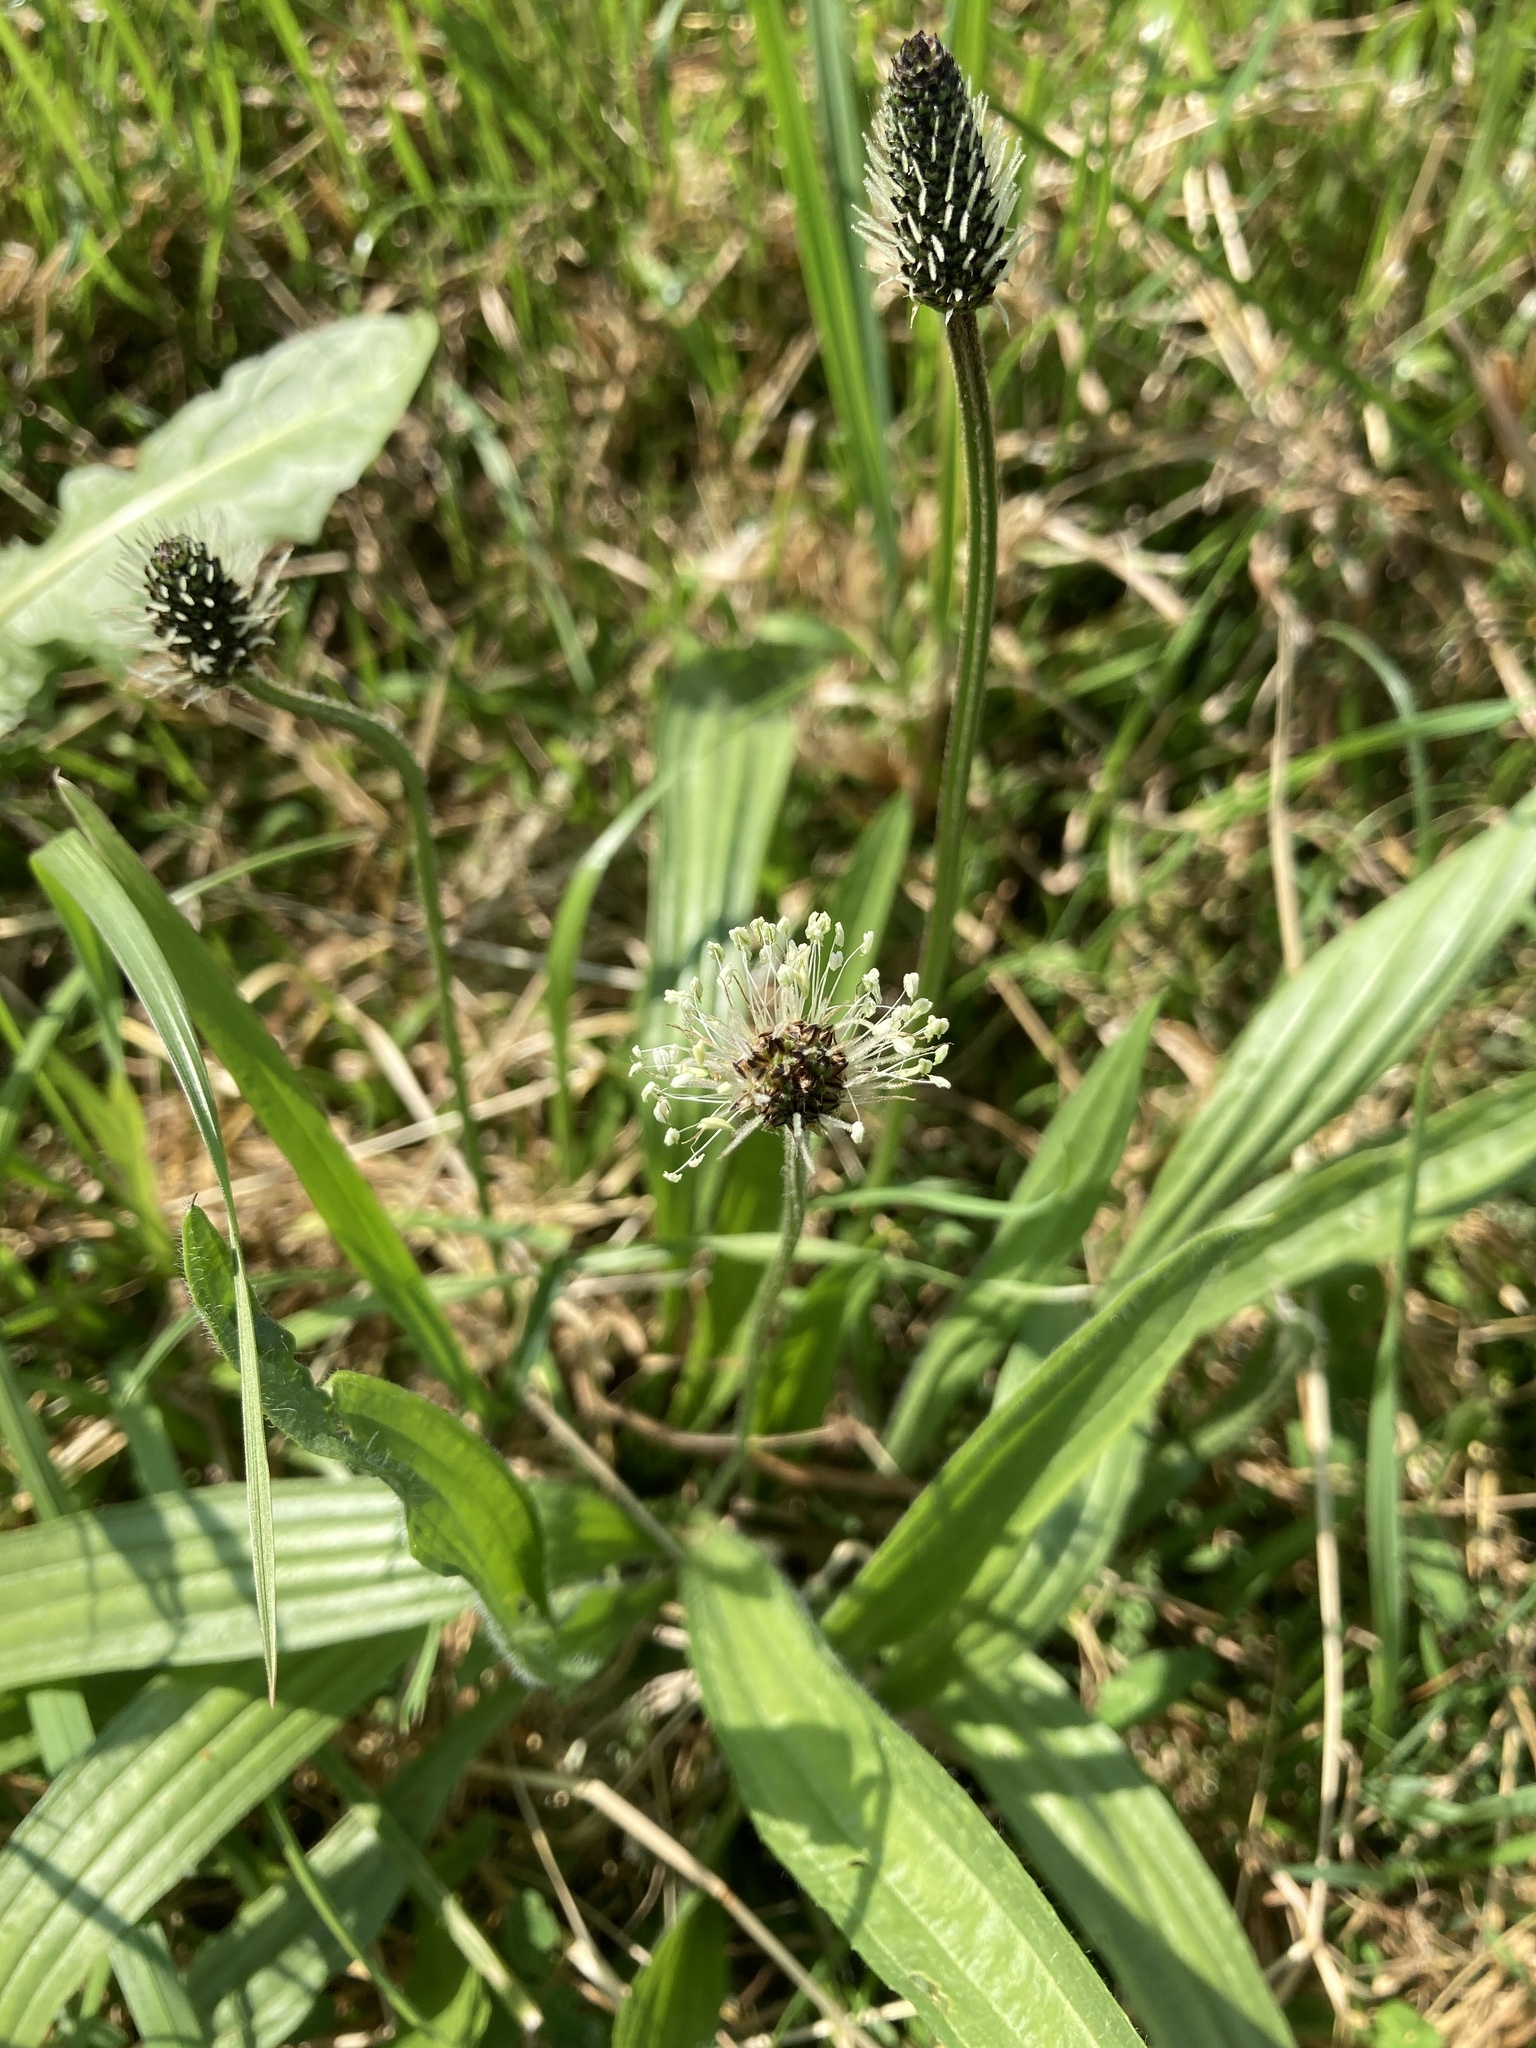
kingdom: Plantae
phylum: Tracheophyta
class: Magnoliopsida
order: Lamiales
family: Plantaginaceae
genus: Plantago
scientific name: Plantago lanceolata
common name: Ribwort plantain
